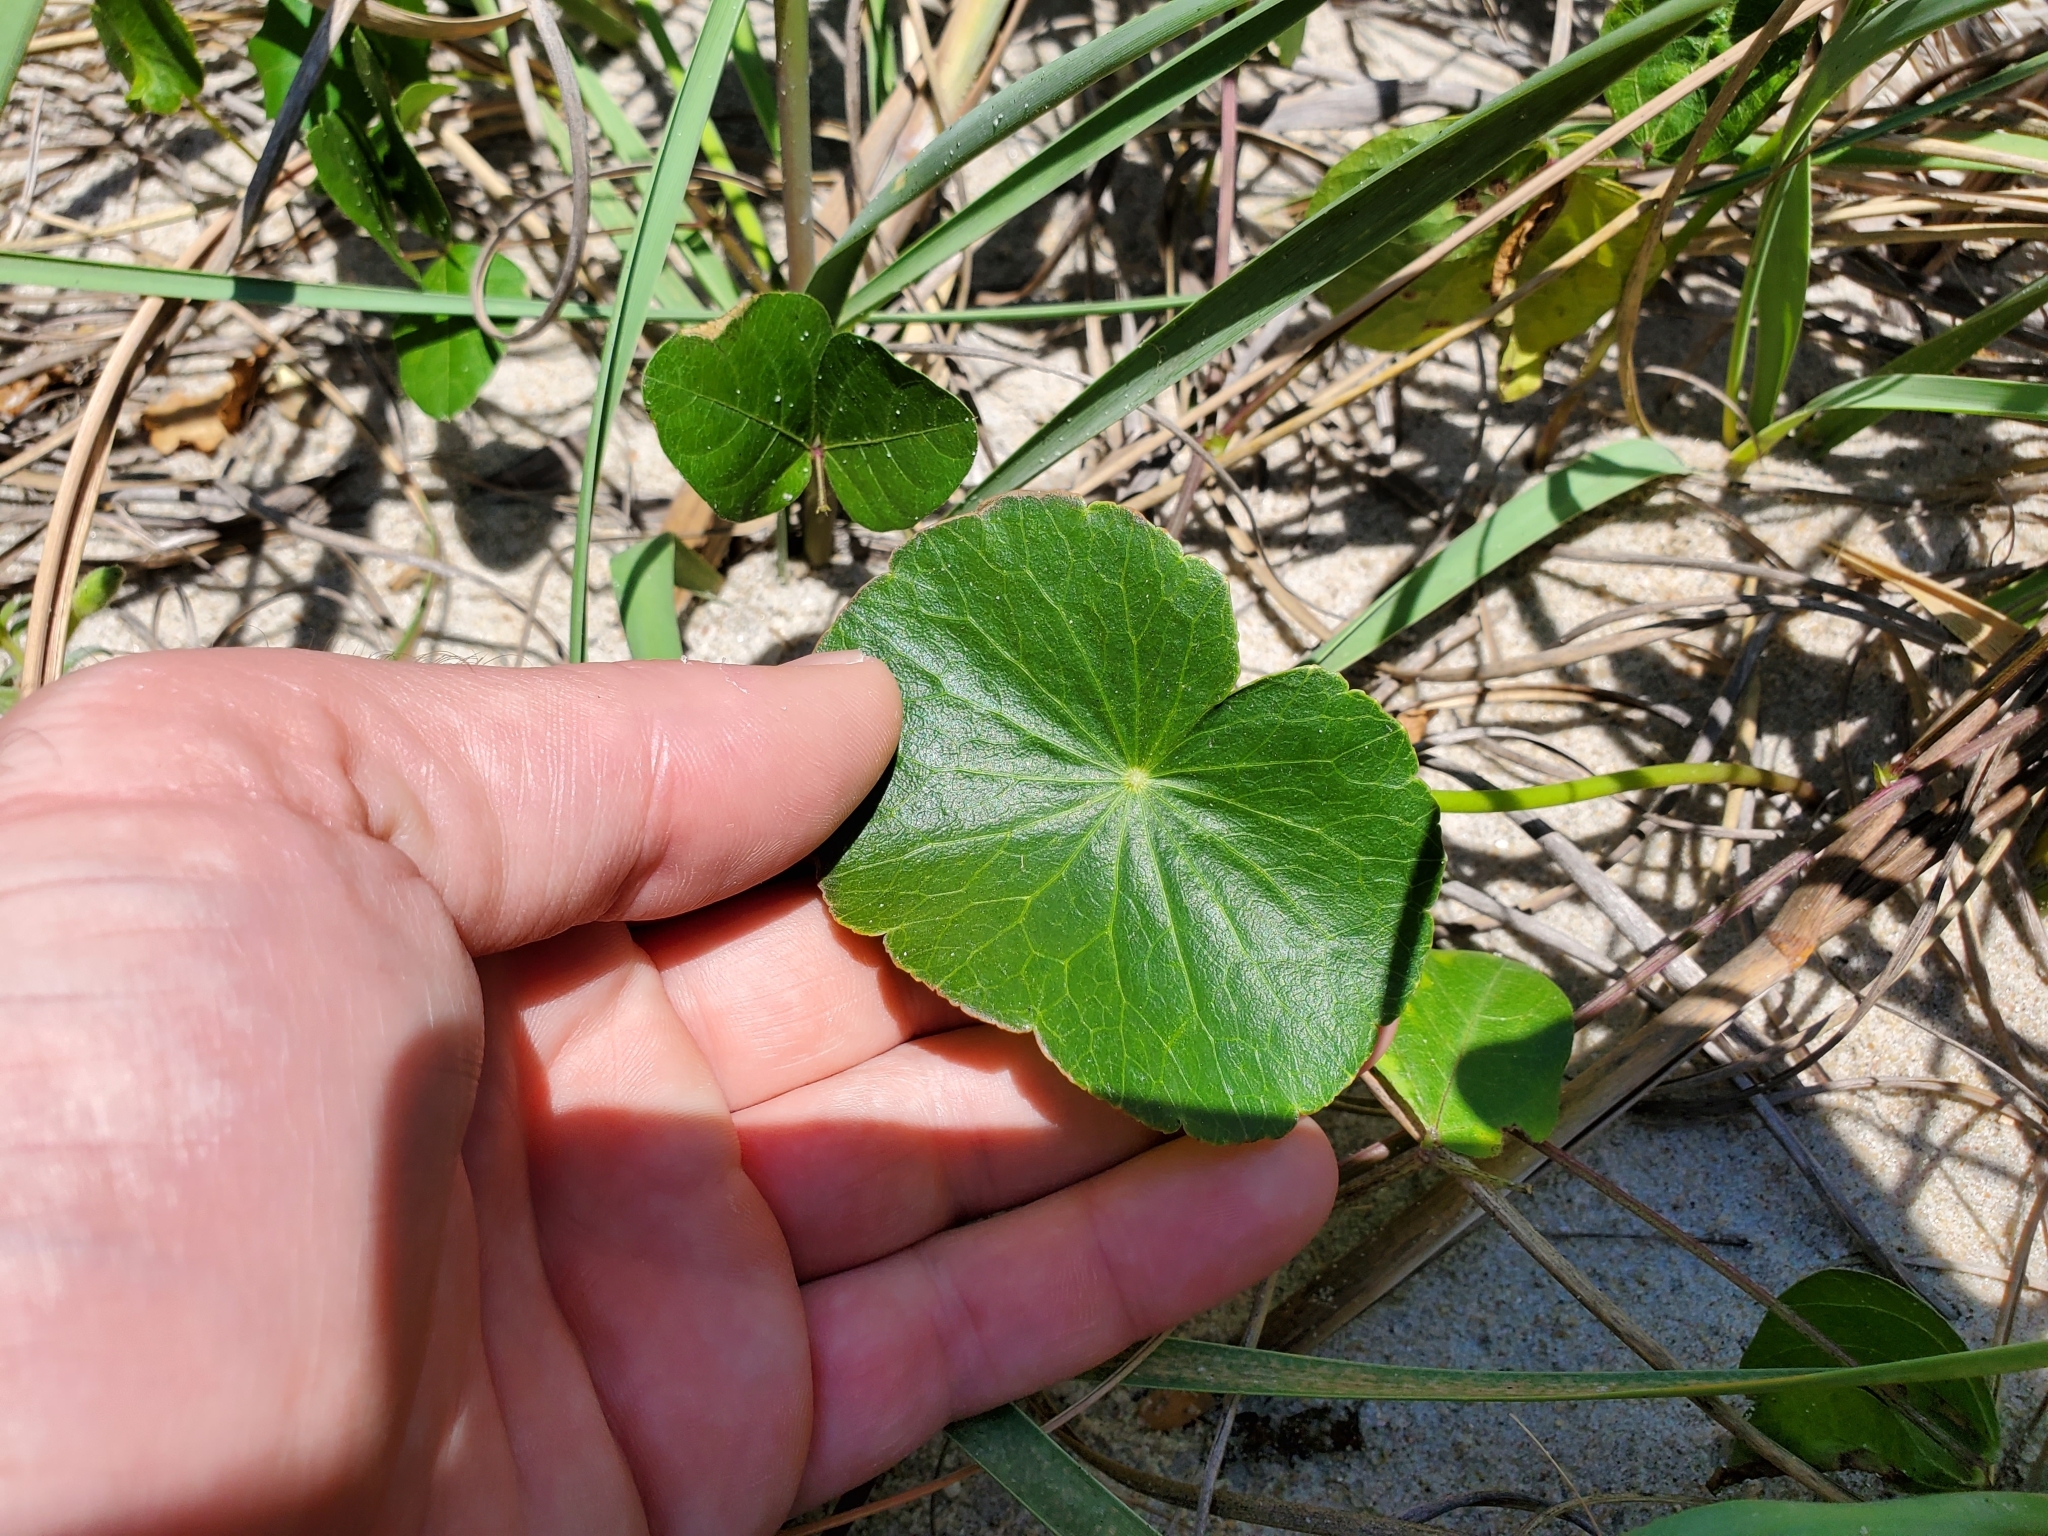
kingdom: Plantae
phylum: Tracheophyta
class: Magnoliopsida
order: Apiales
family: Araliaceae
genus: Hydrocotyle
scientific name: Hydrocotyle bonariensis
